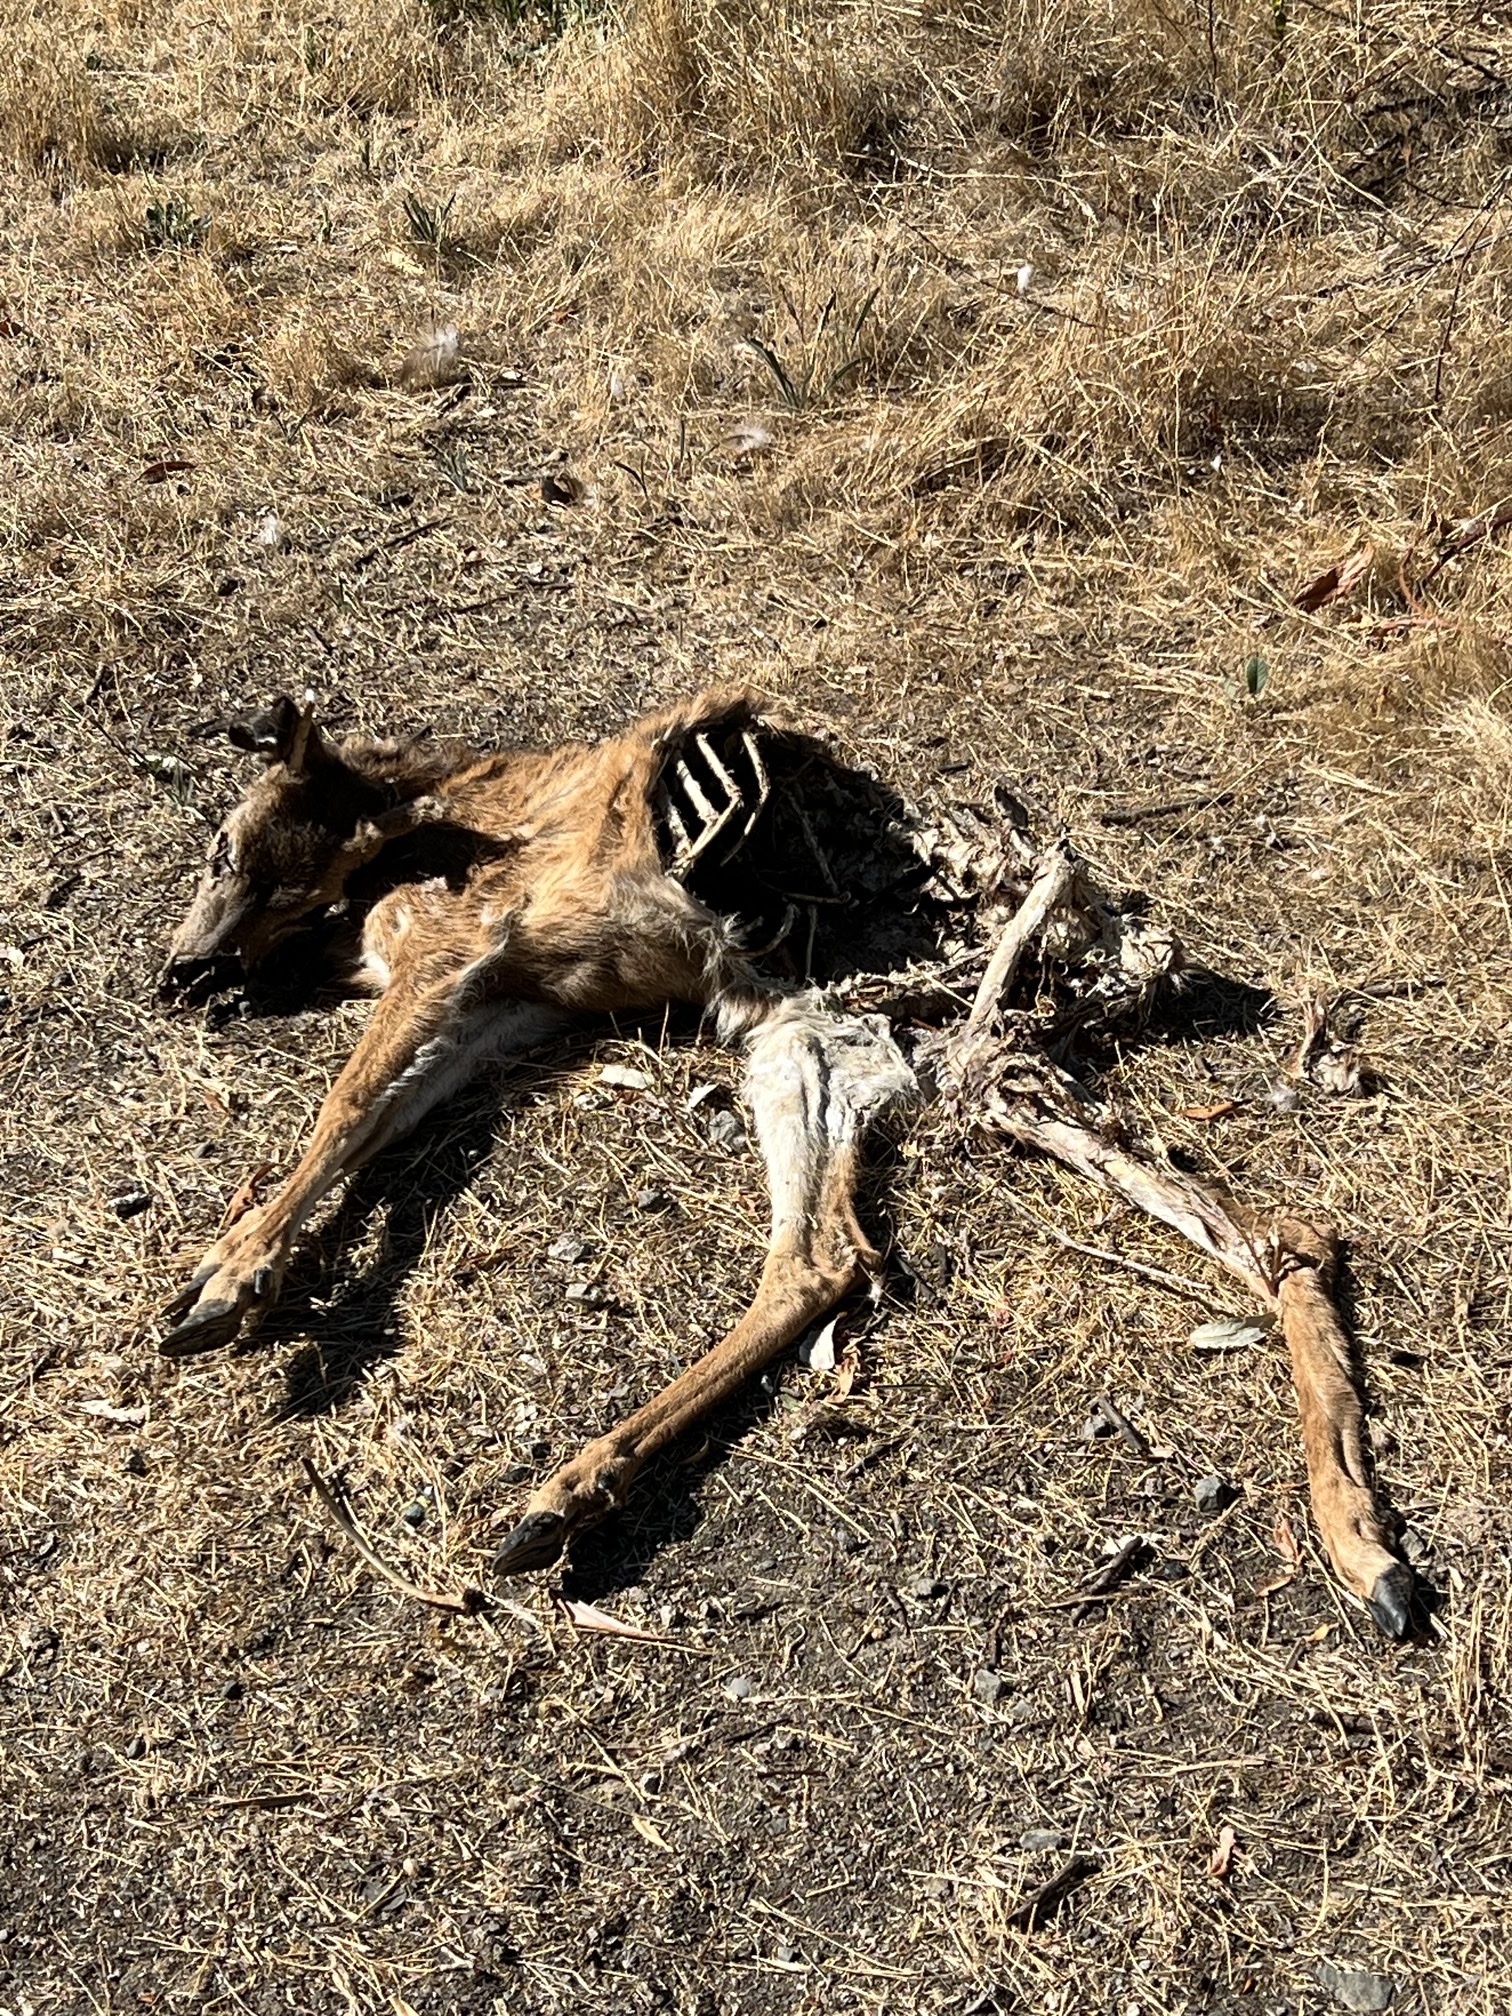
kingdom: Animalia
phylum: Chordata
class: Mammalia
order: Artiodactyla
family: Cervidae
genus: Odocoileus
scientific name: Odocoileus hemionus
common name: Mule deer
